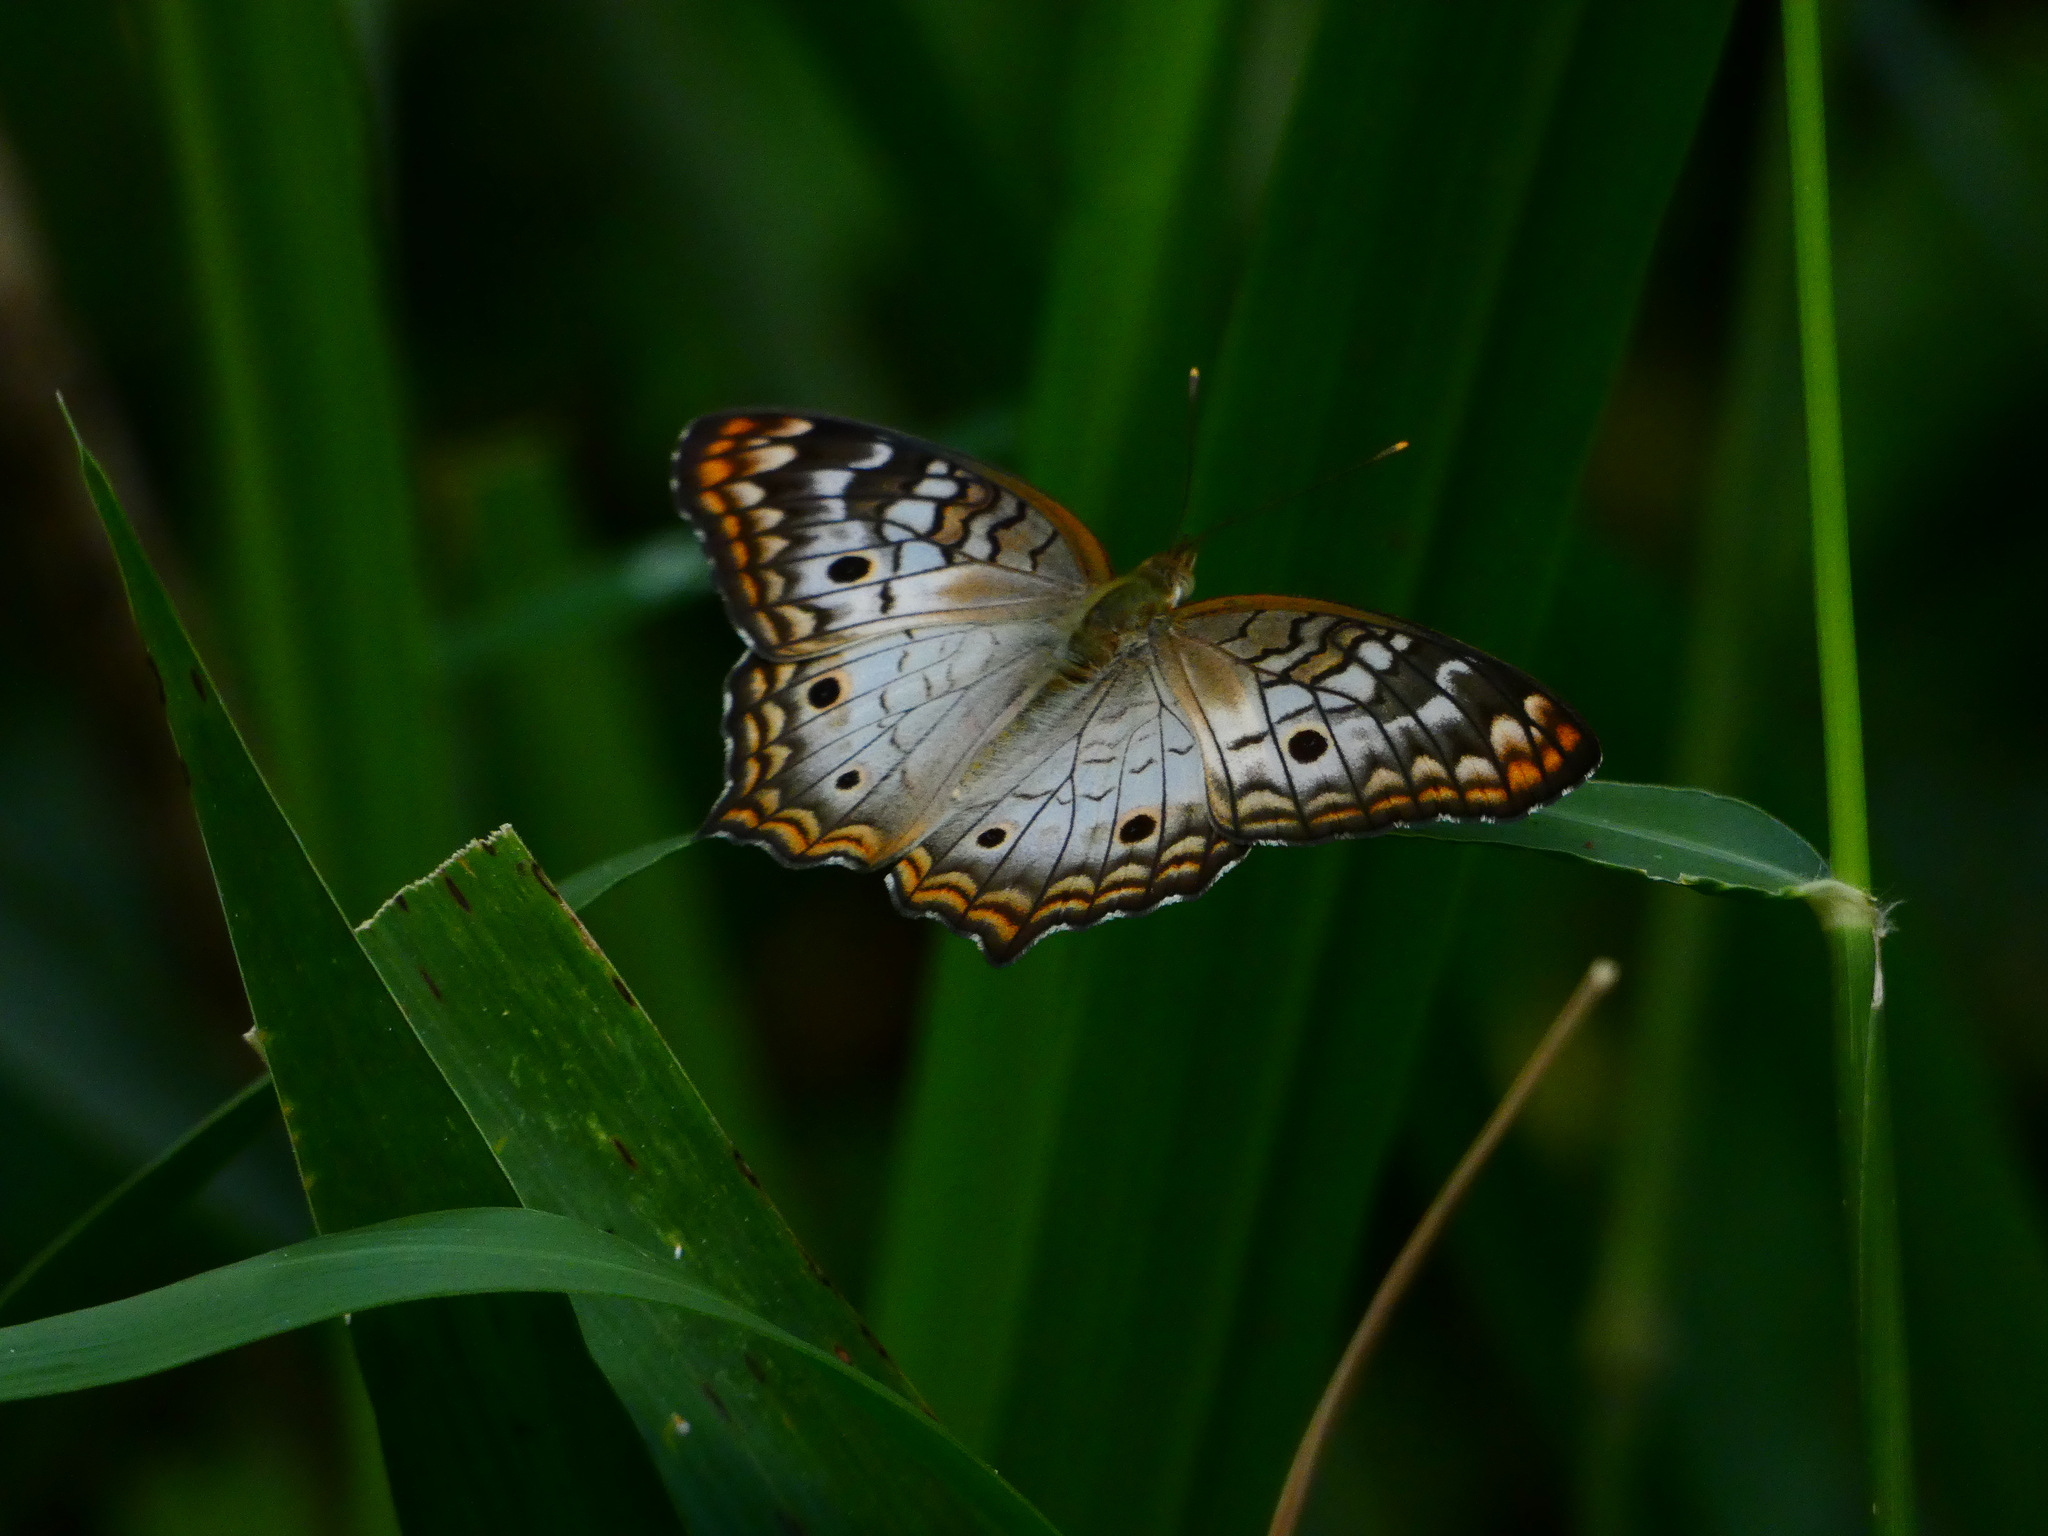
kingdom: Animalia
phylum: Arthropoda
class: Insecta
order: Lepidoptera
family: Nymphalidae
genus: Anartia
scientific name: Anartia jatrophae
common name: White peacock
